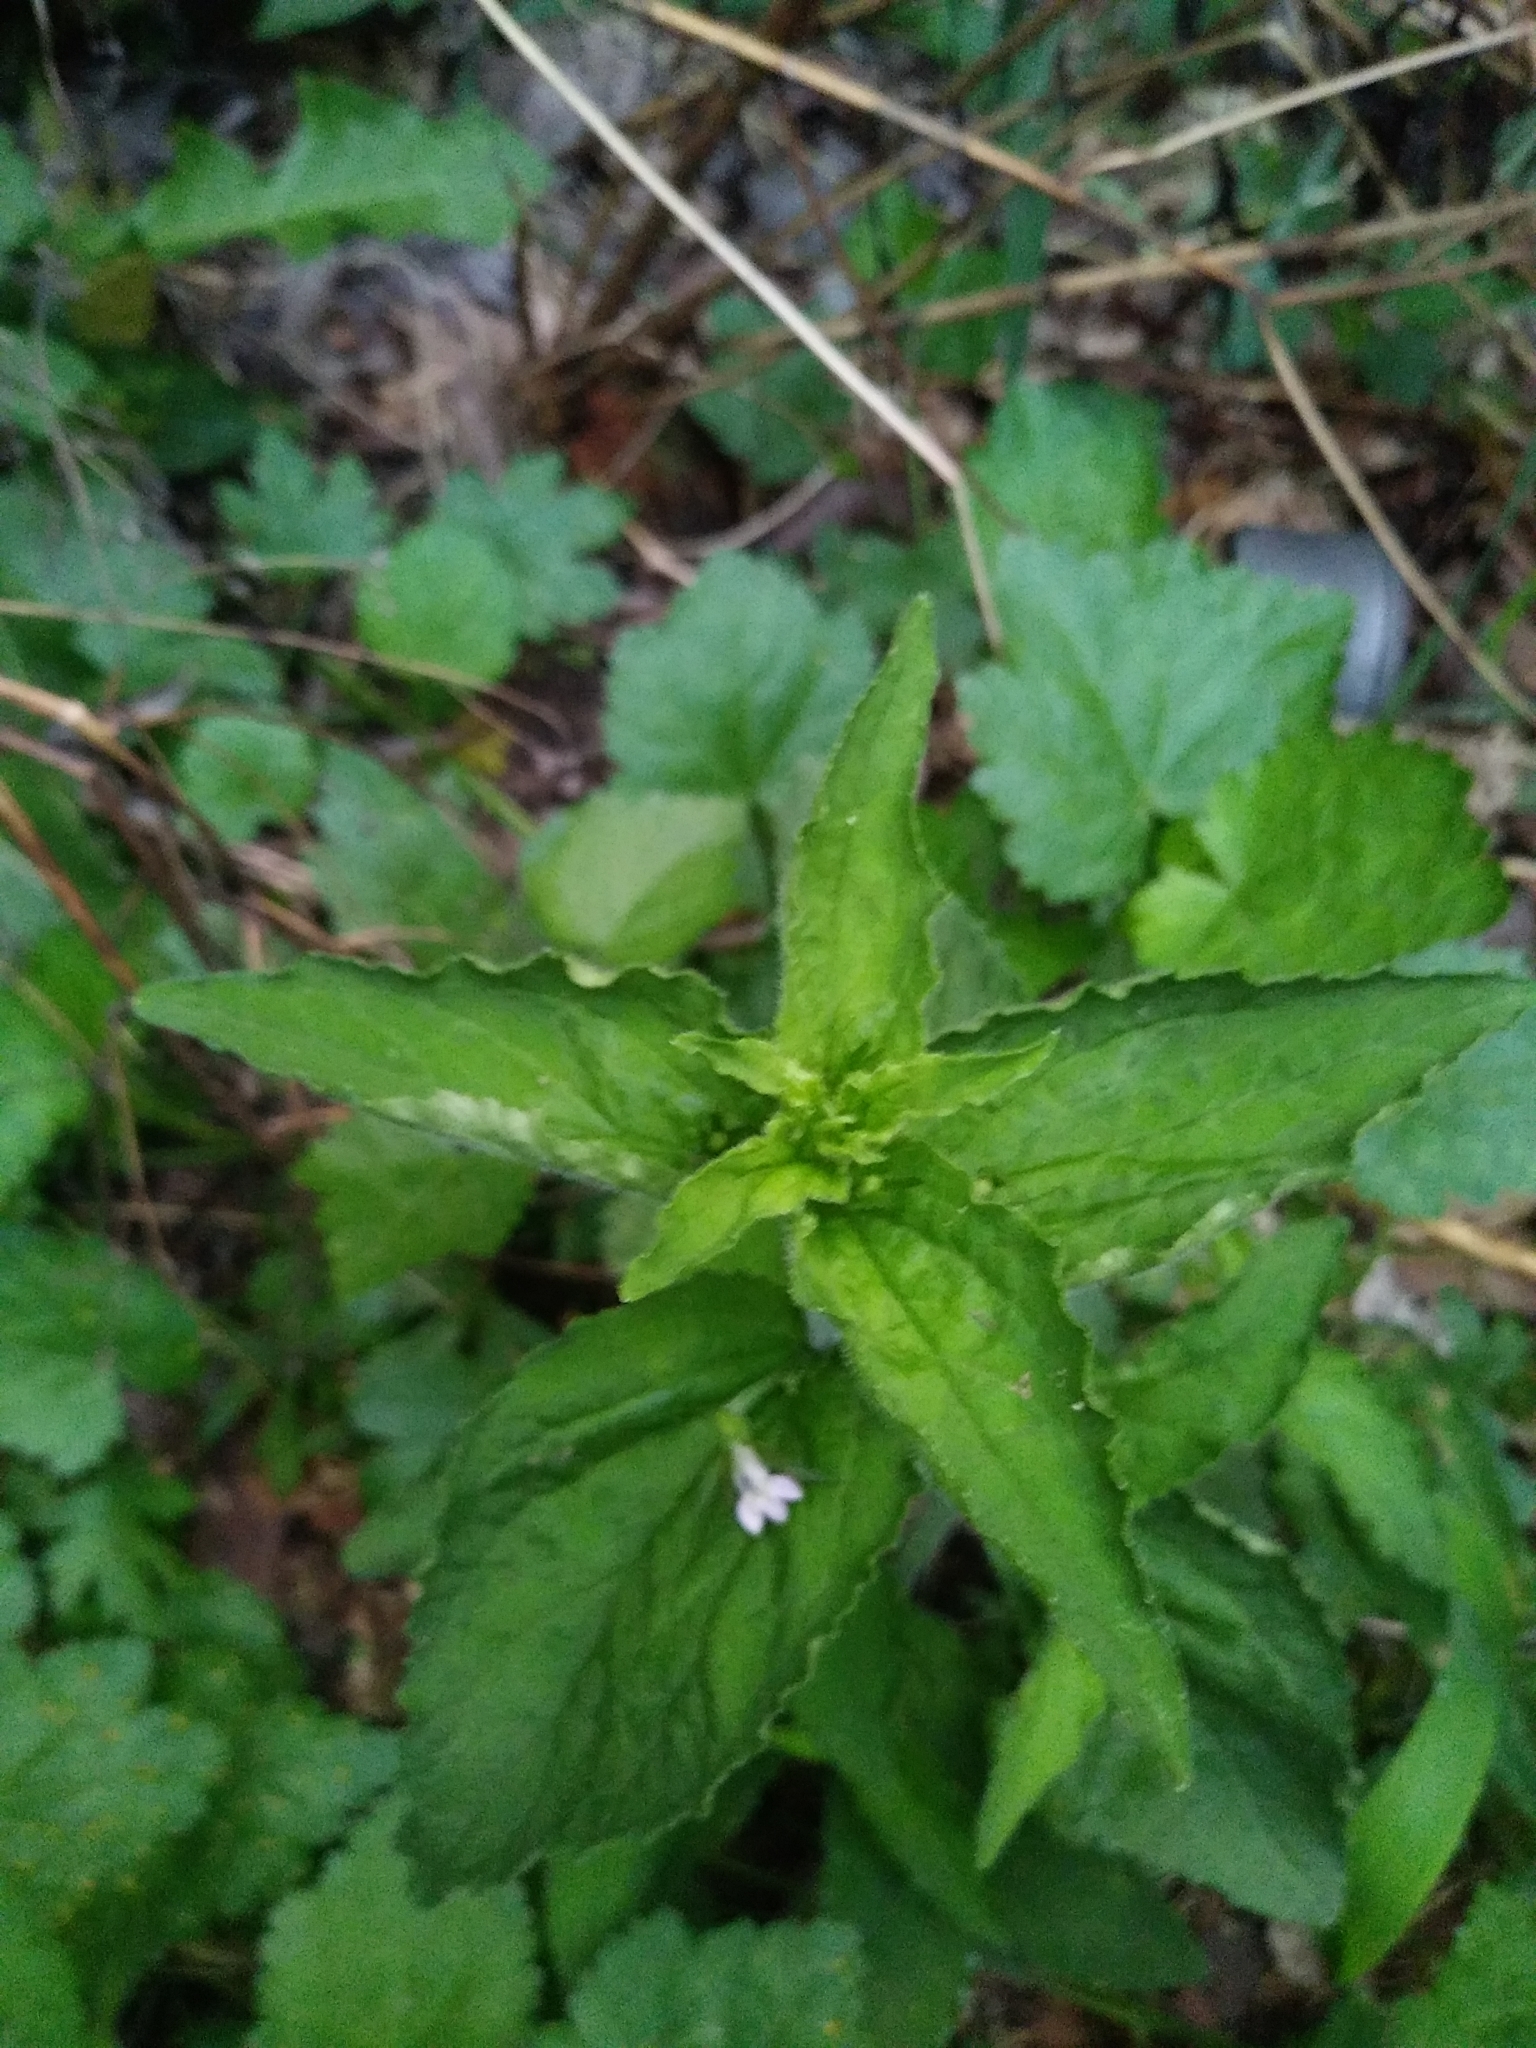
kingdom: Plantae
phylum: Tracheophyta
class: Magnoliopsida
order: Asterales
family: Campanulaceae
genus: Lobelia
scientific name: Lobelia inflata
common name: Indian tobacco
